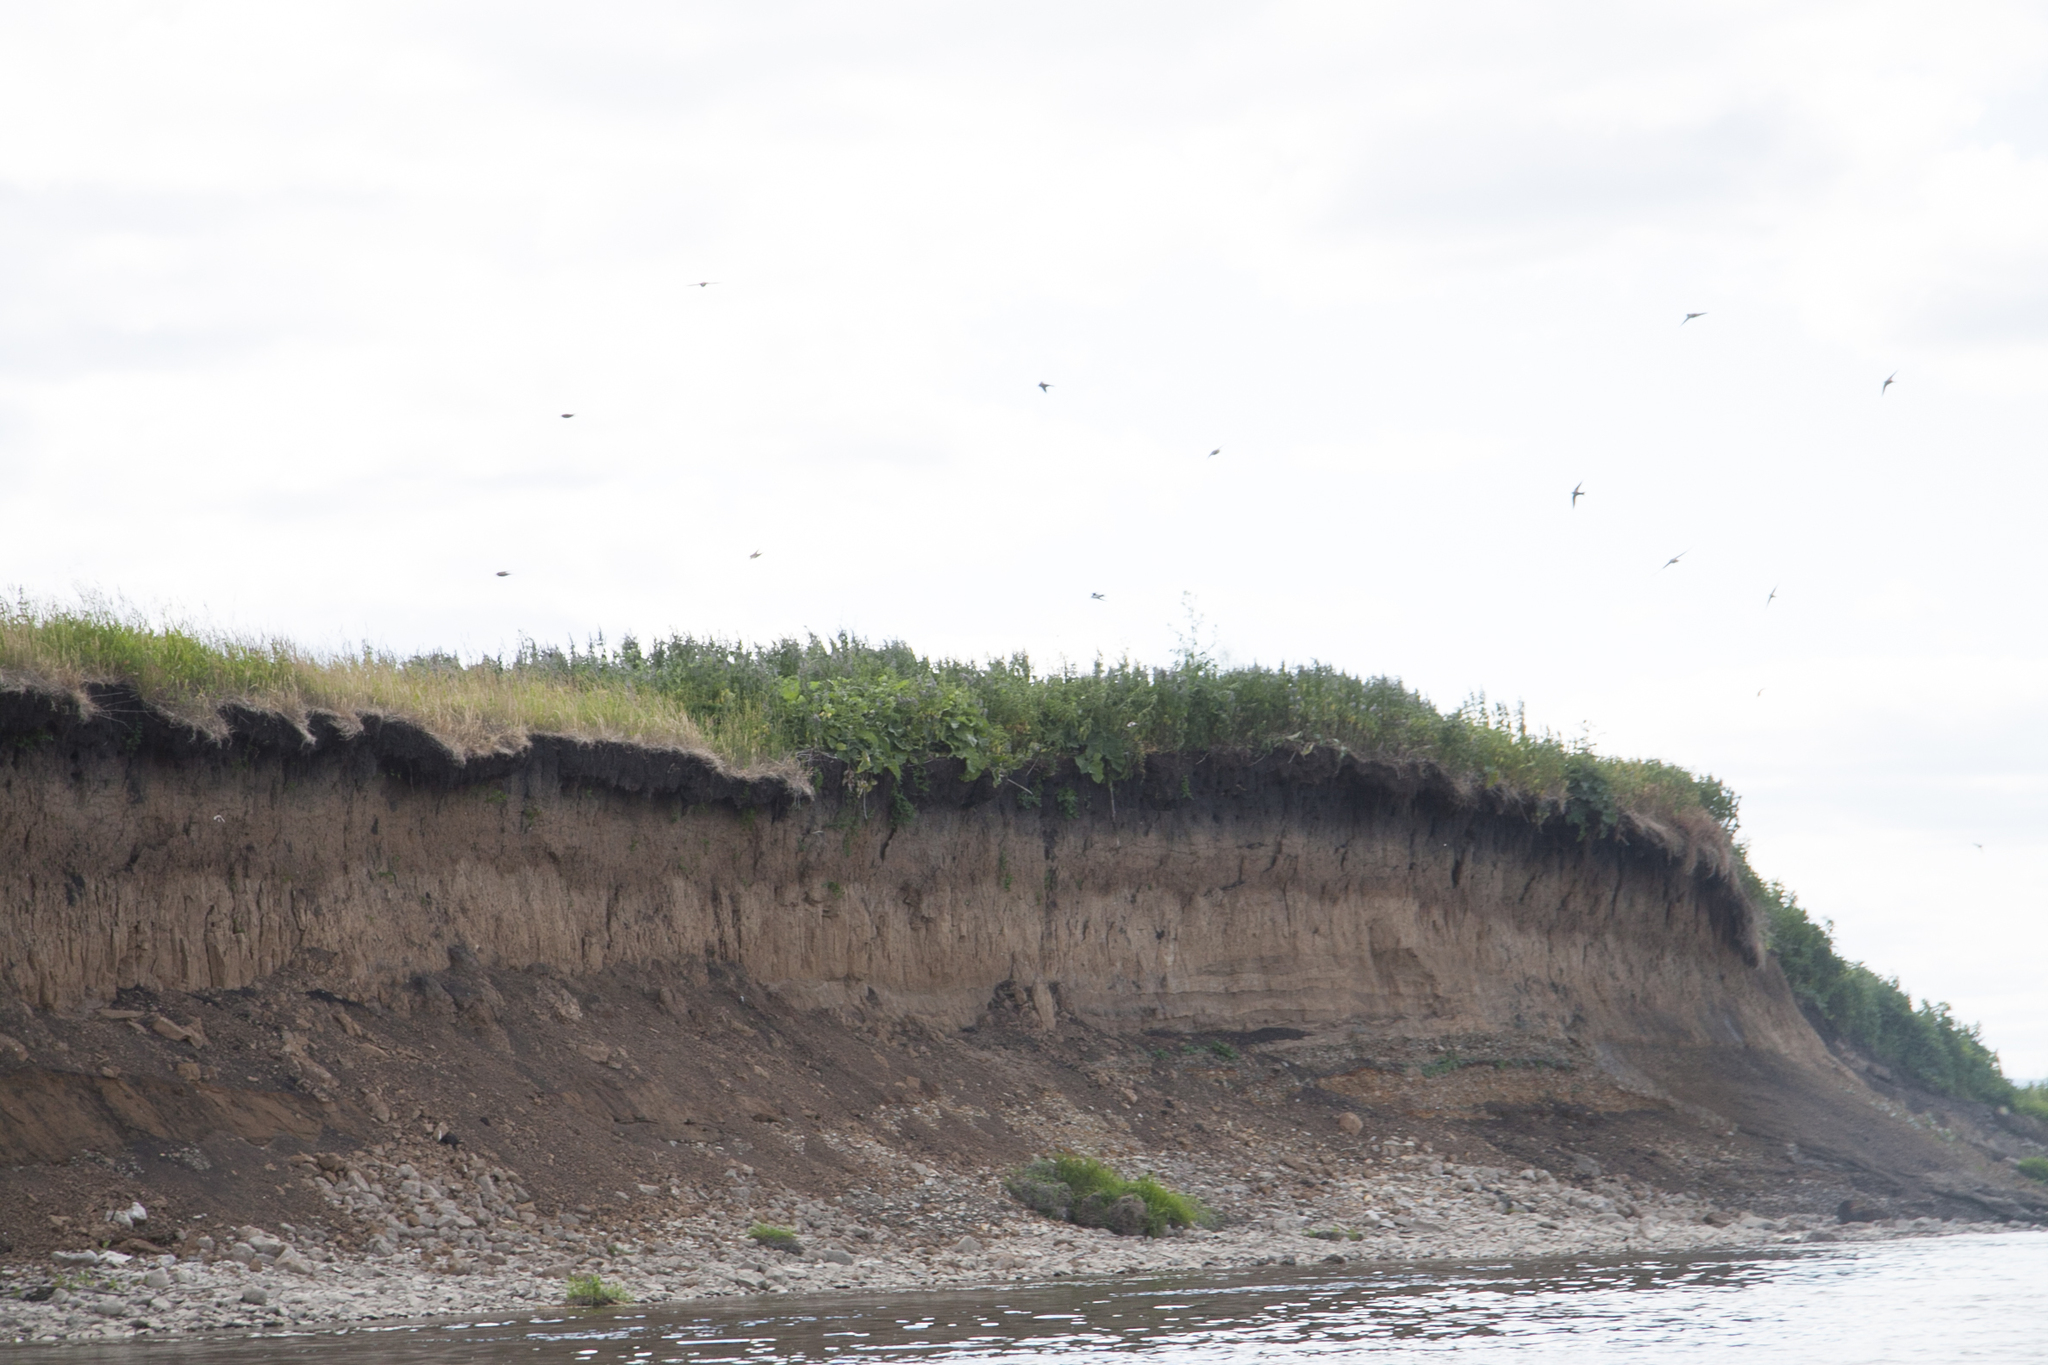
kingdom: Animalia
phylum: Chordata
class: Aves
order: Passeriformes
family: Hirundinidae
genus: Riparia
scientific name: Riparia riparia
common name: Sand martin
